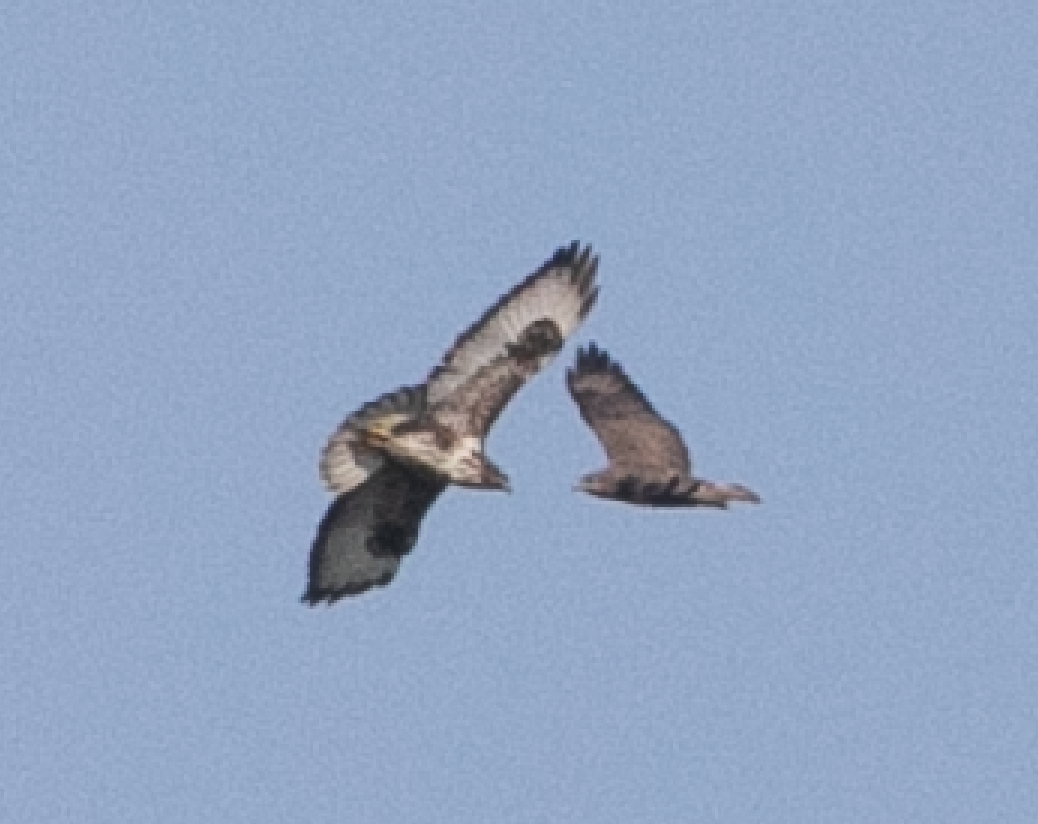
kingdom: Animalia
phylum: Chordata
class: Aves
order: Accipitriformes
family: Accipitridae
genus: Buteo
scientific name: Buteo buteo
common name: Common buzzard
